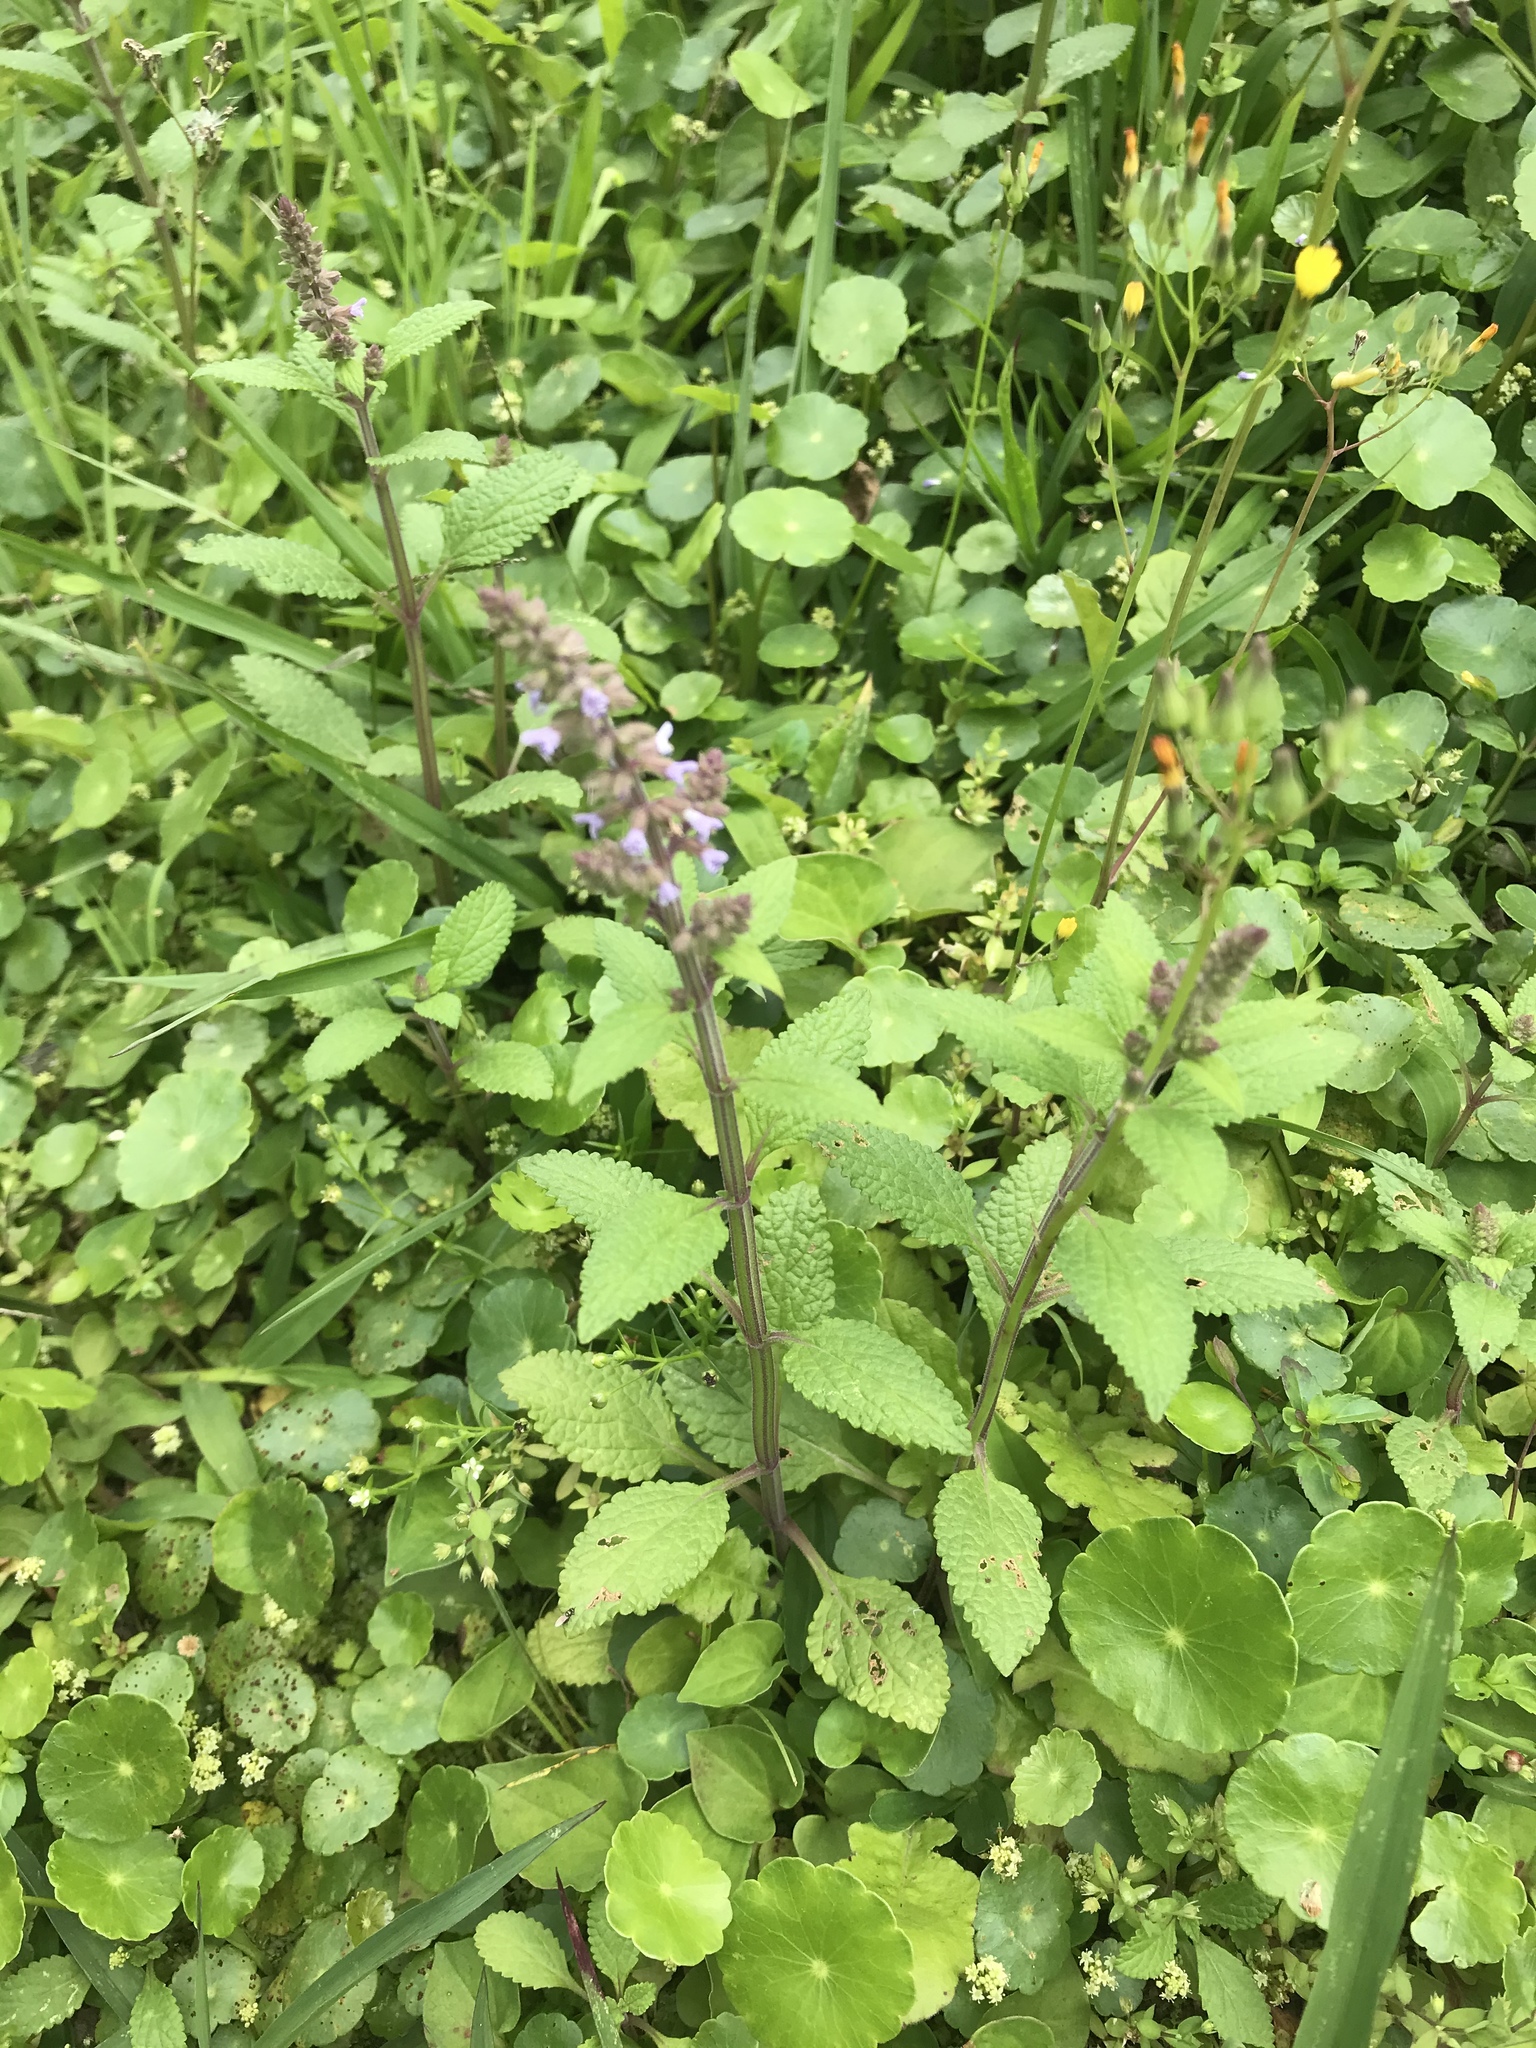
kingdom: Plantae
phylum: Tracheophyta
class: Magnoliopsida
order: Lamiales
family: Lamiaceae
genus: Salvia
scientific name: Salvia plebeia
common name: Australian sage
